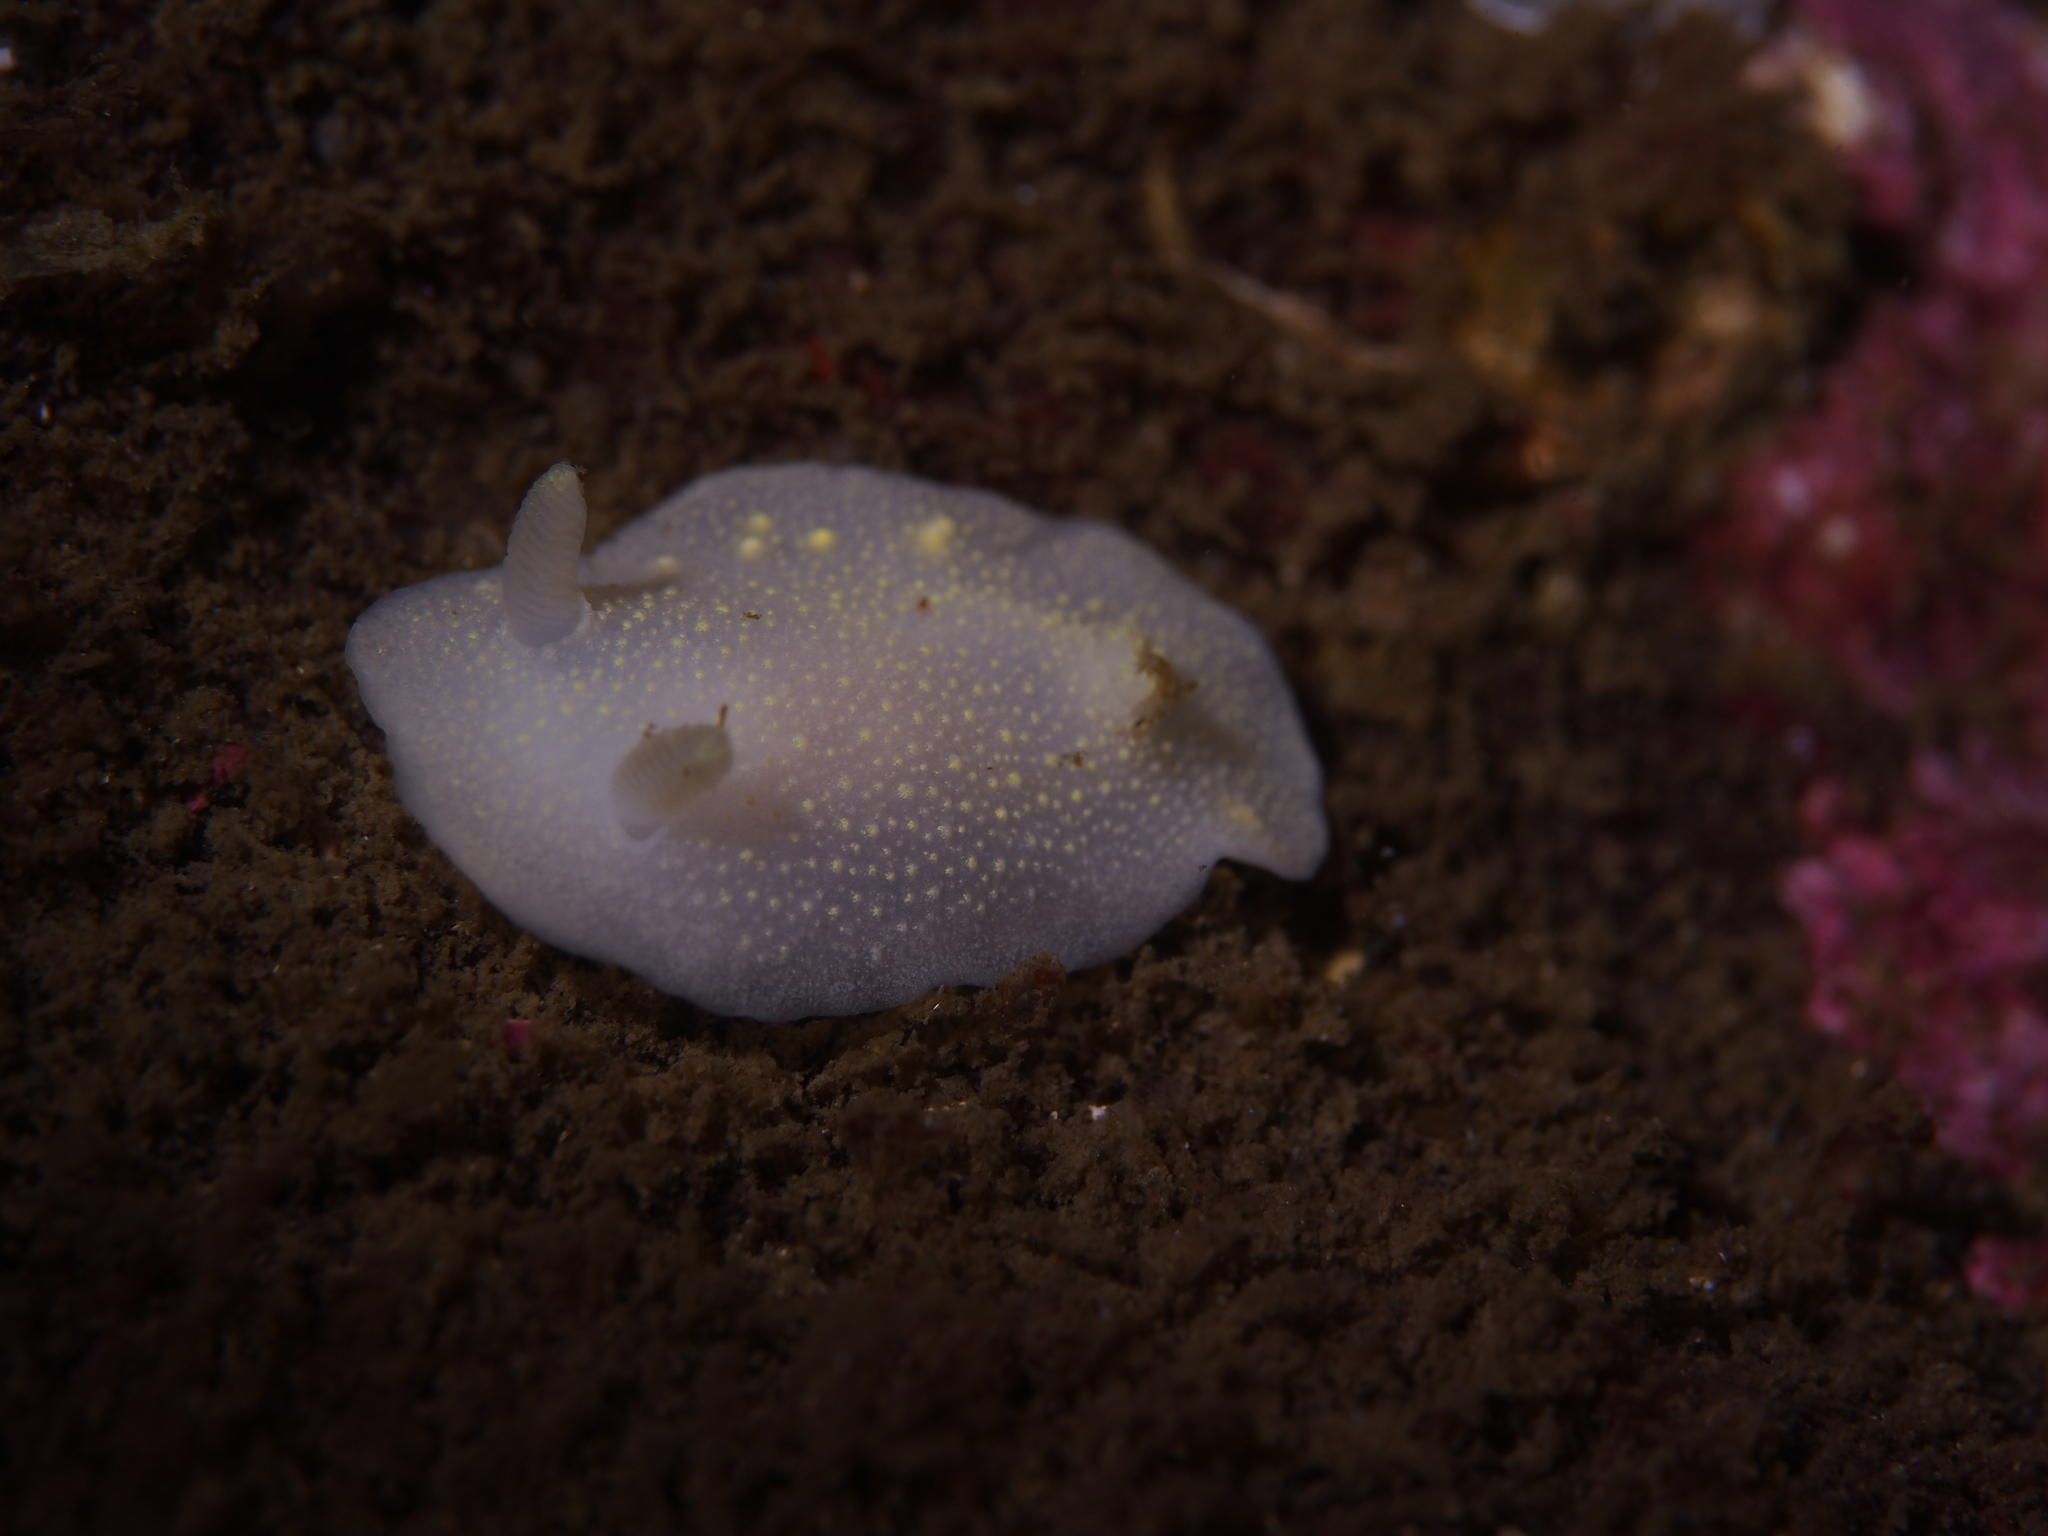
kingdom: Animalia
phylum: Mollusca
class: Gastropoda
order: Nudibranchia
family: Cadlinidae
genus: Cadlina
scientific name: Cadlina laevis
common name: White atlantic cadlina
